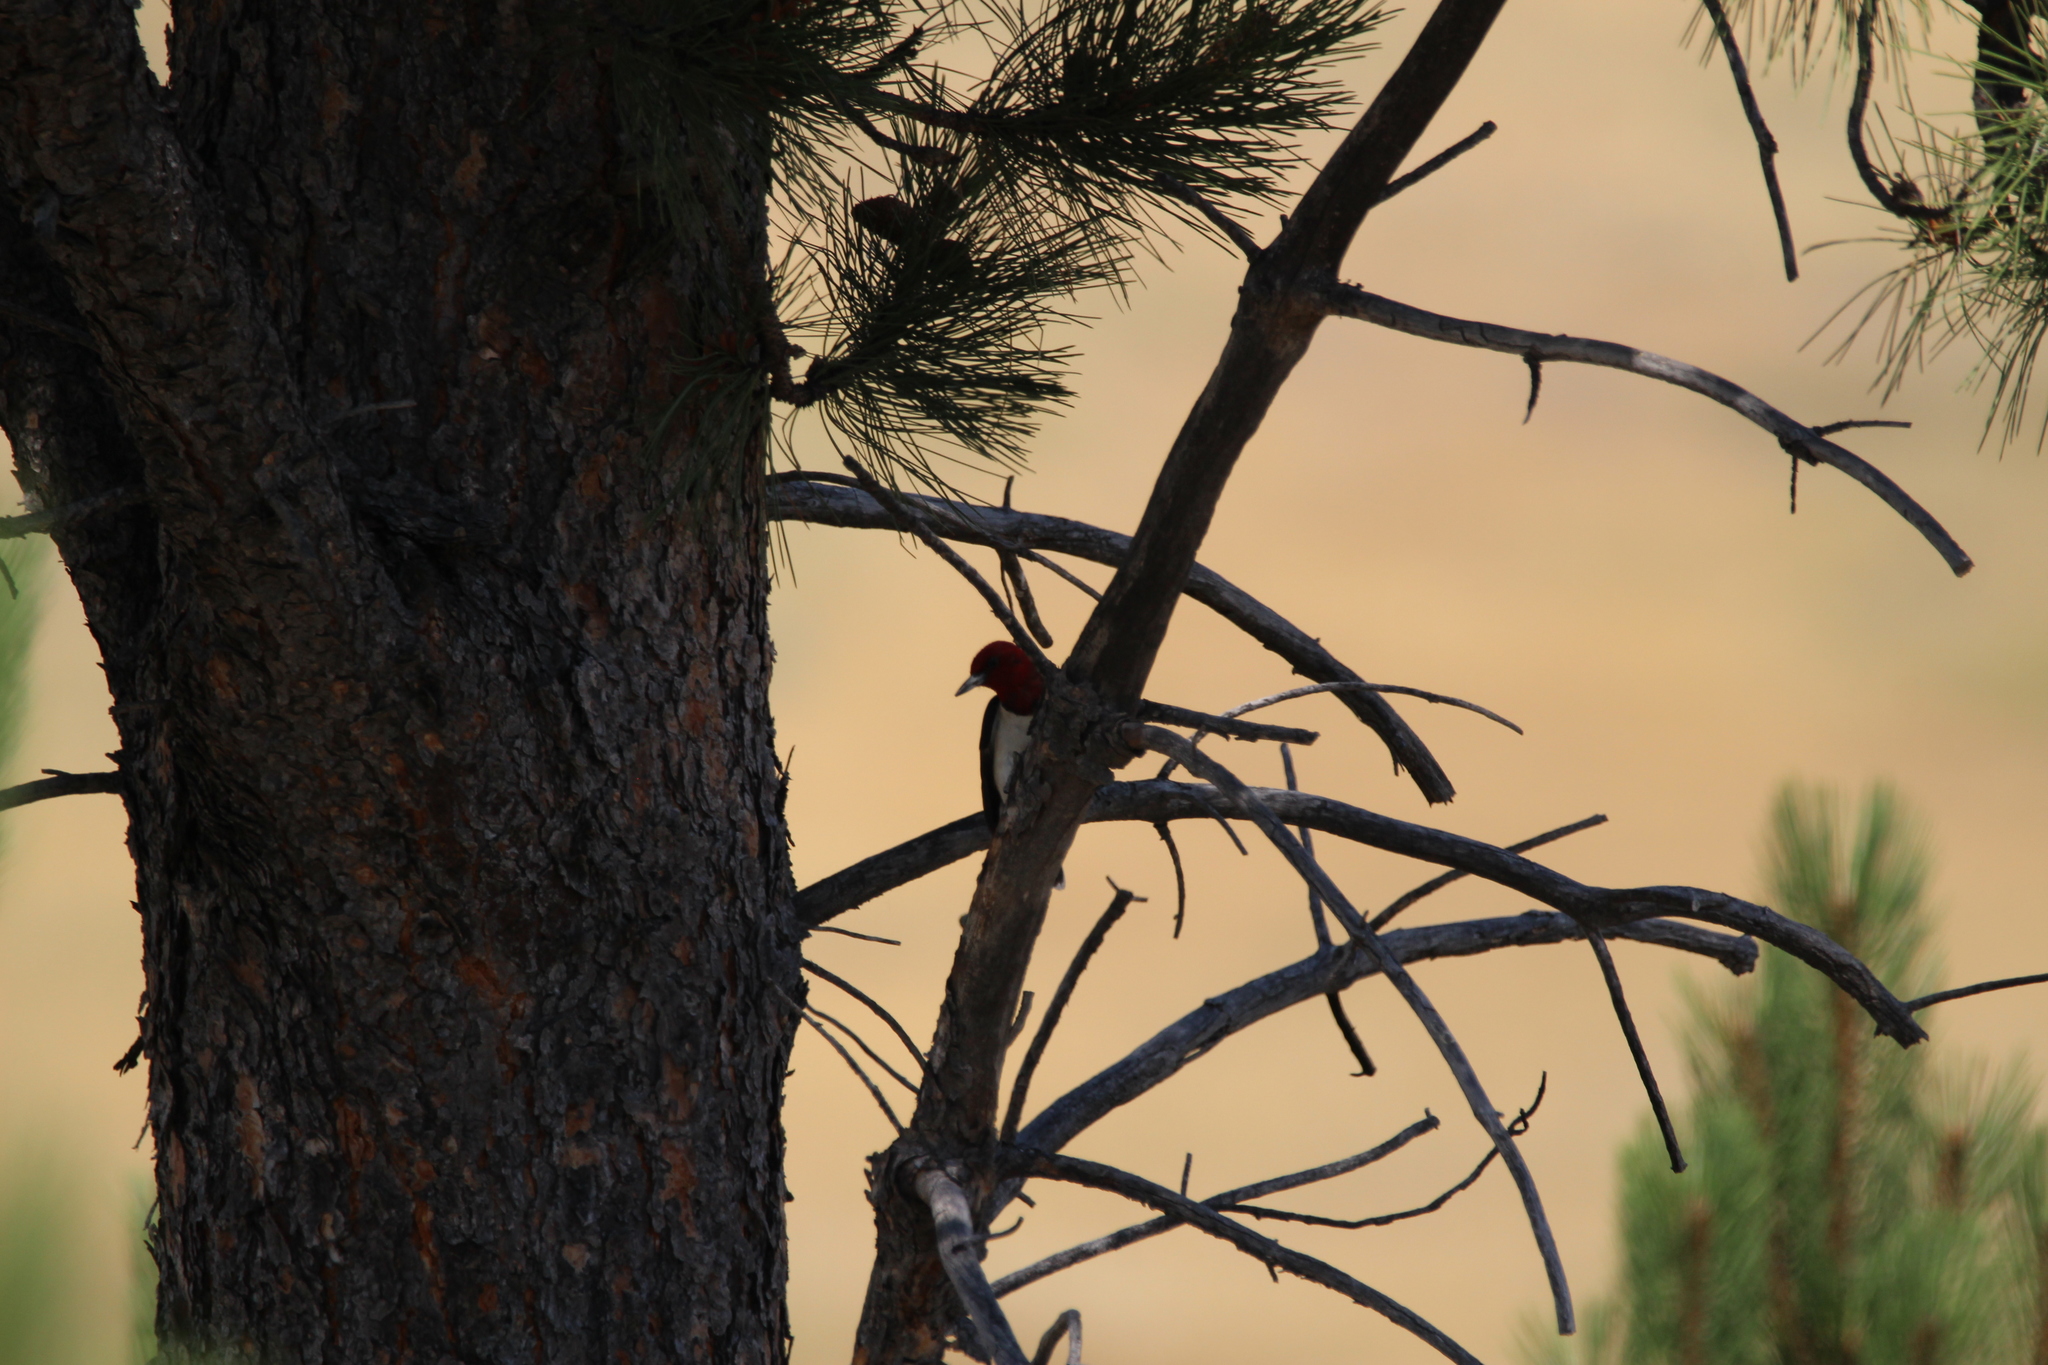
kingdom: Animalia
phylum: Chordata
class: Aves
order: Piciformes
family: Picidae
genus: Melanerpes
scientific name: Melanerpes erythrocephalus
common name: Red-headed woodpecker
